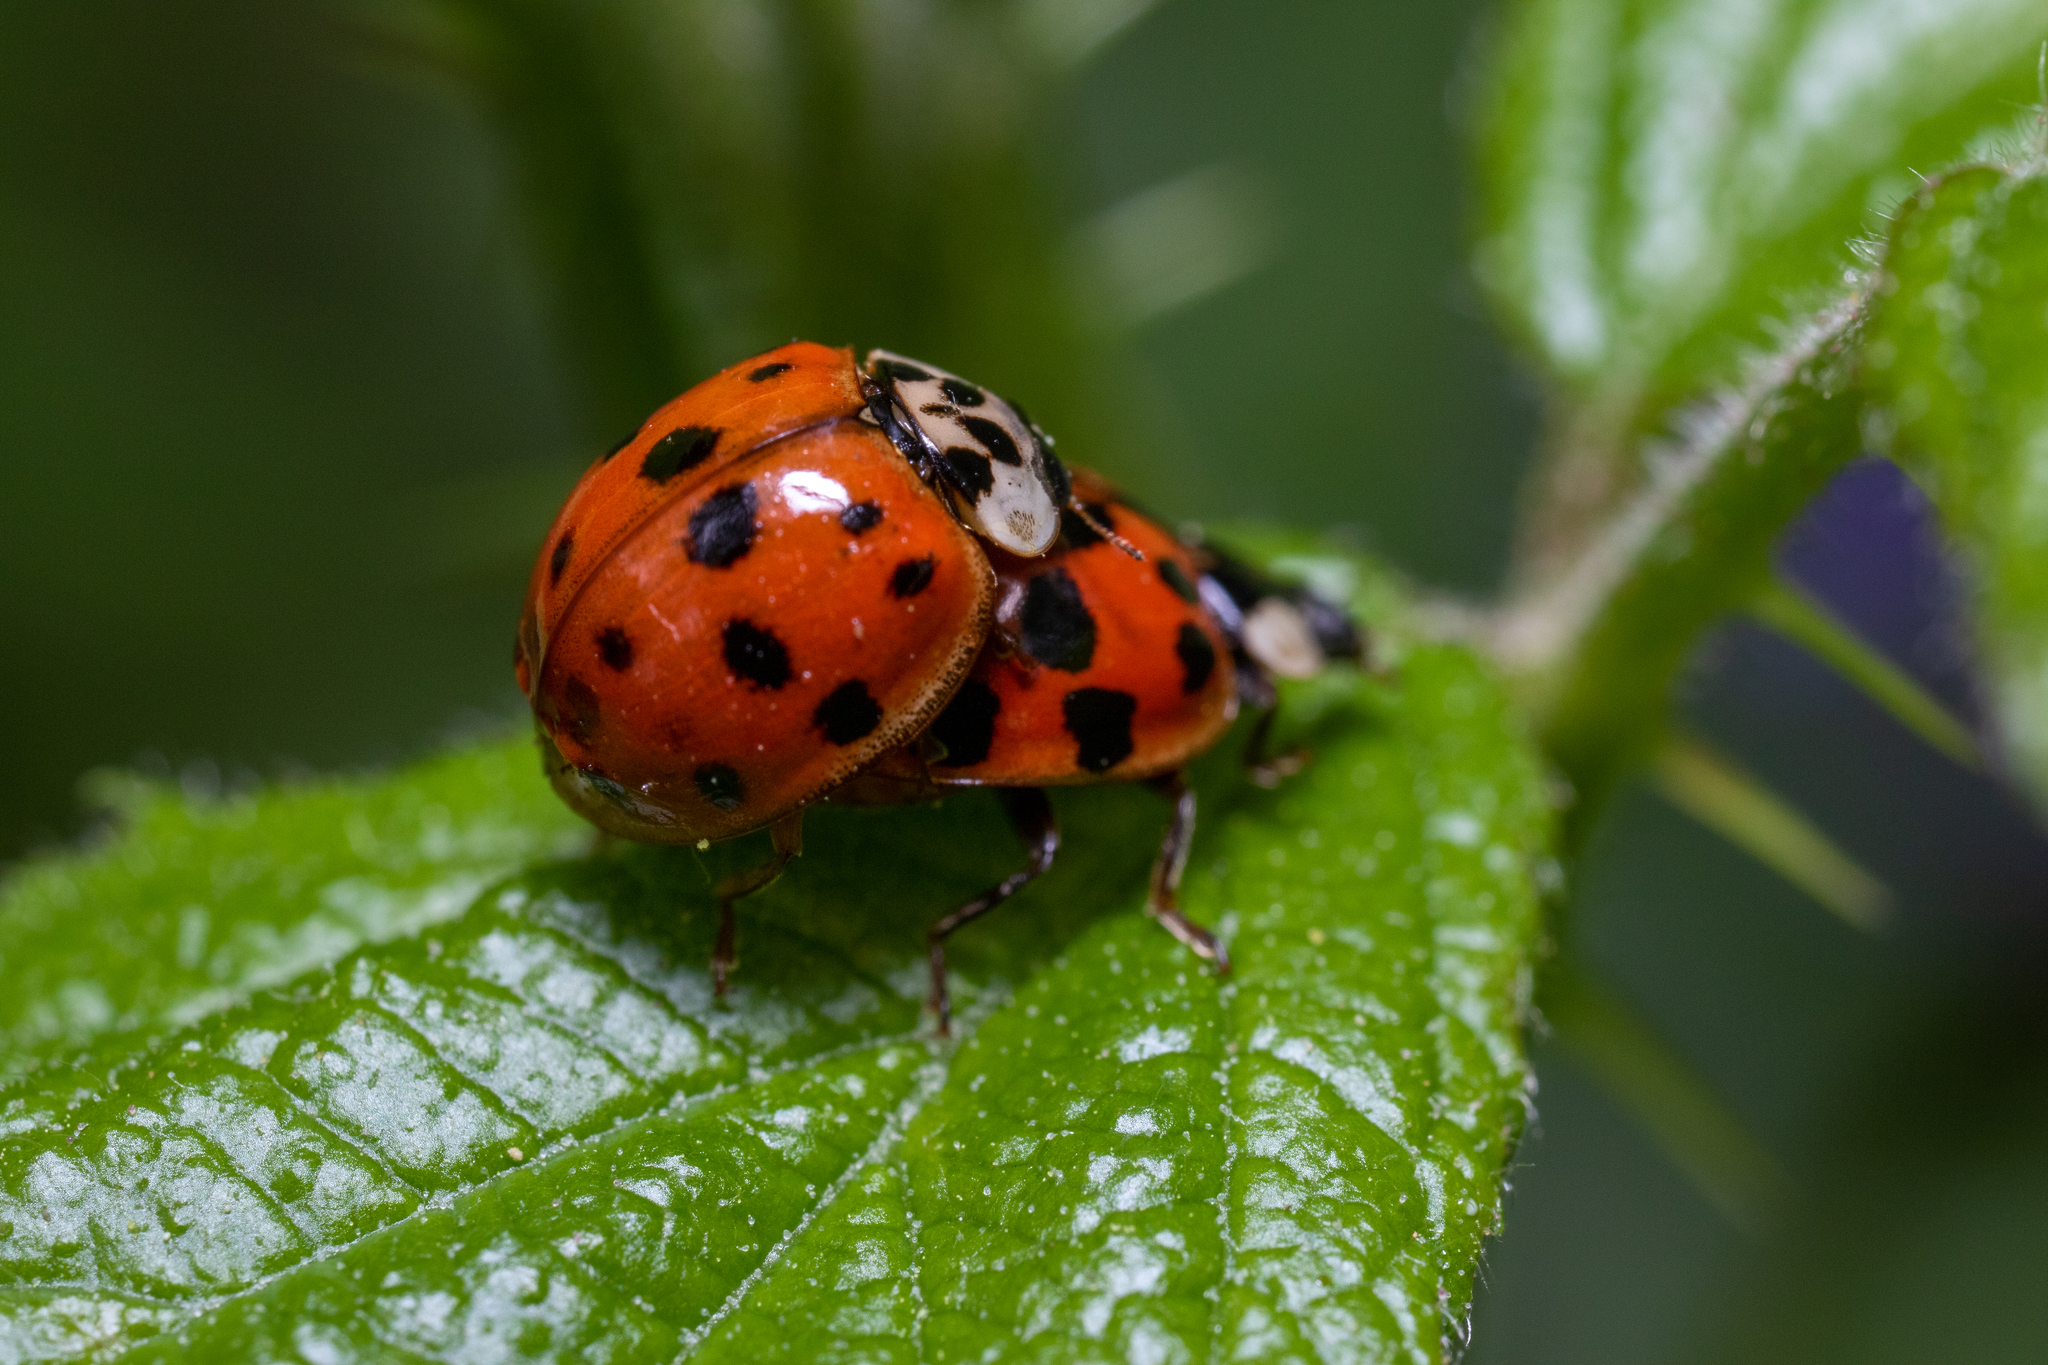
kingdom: Animalia
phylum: Arthropoda
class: Insecta
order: Coleoptera
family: Coccinellidae
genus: Harmonia
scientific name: Harmonia axyridis
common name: Harlequin ladybird
